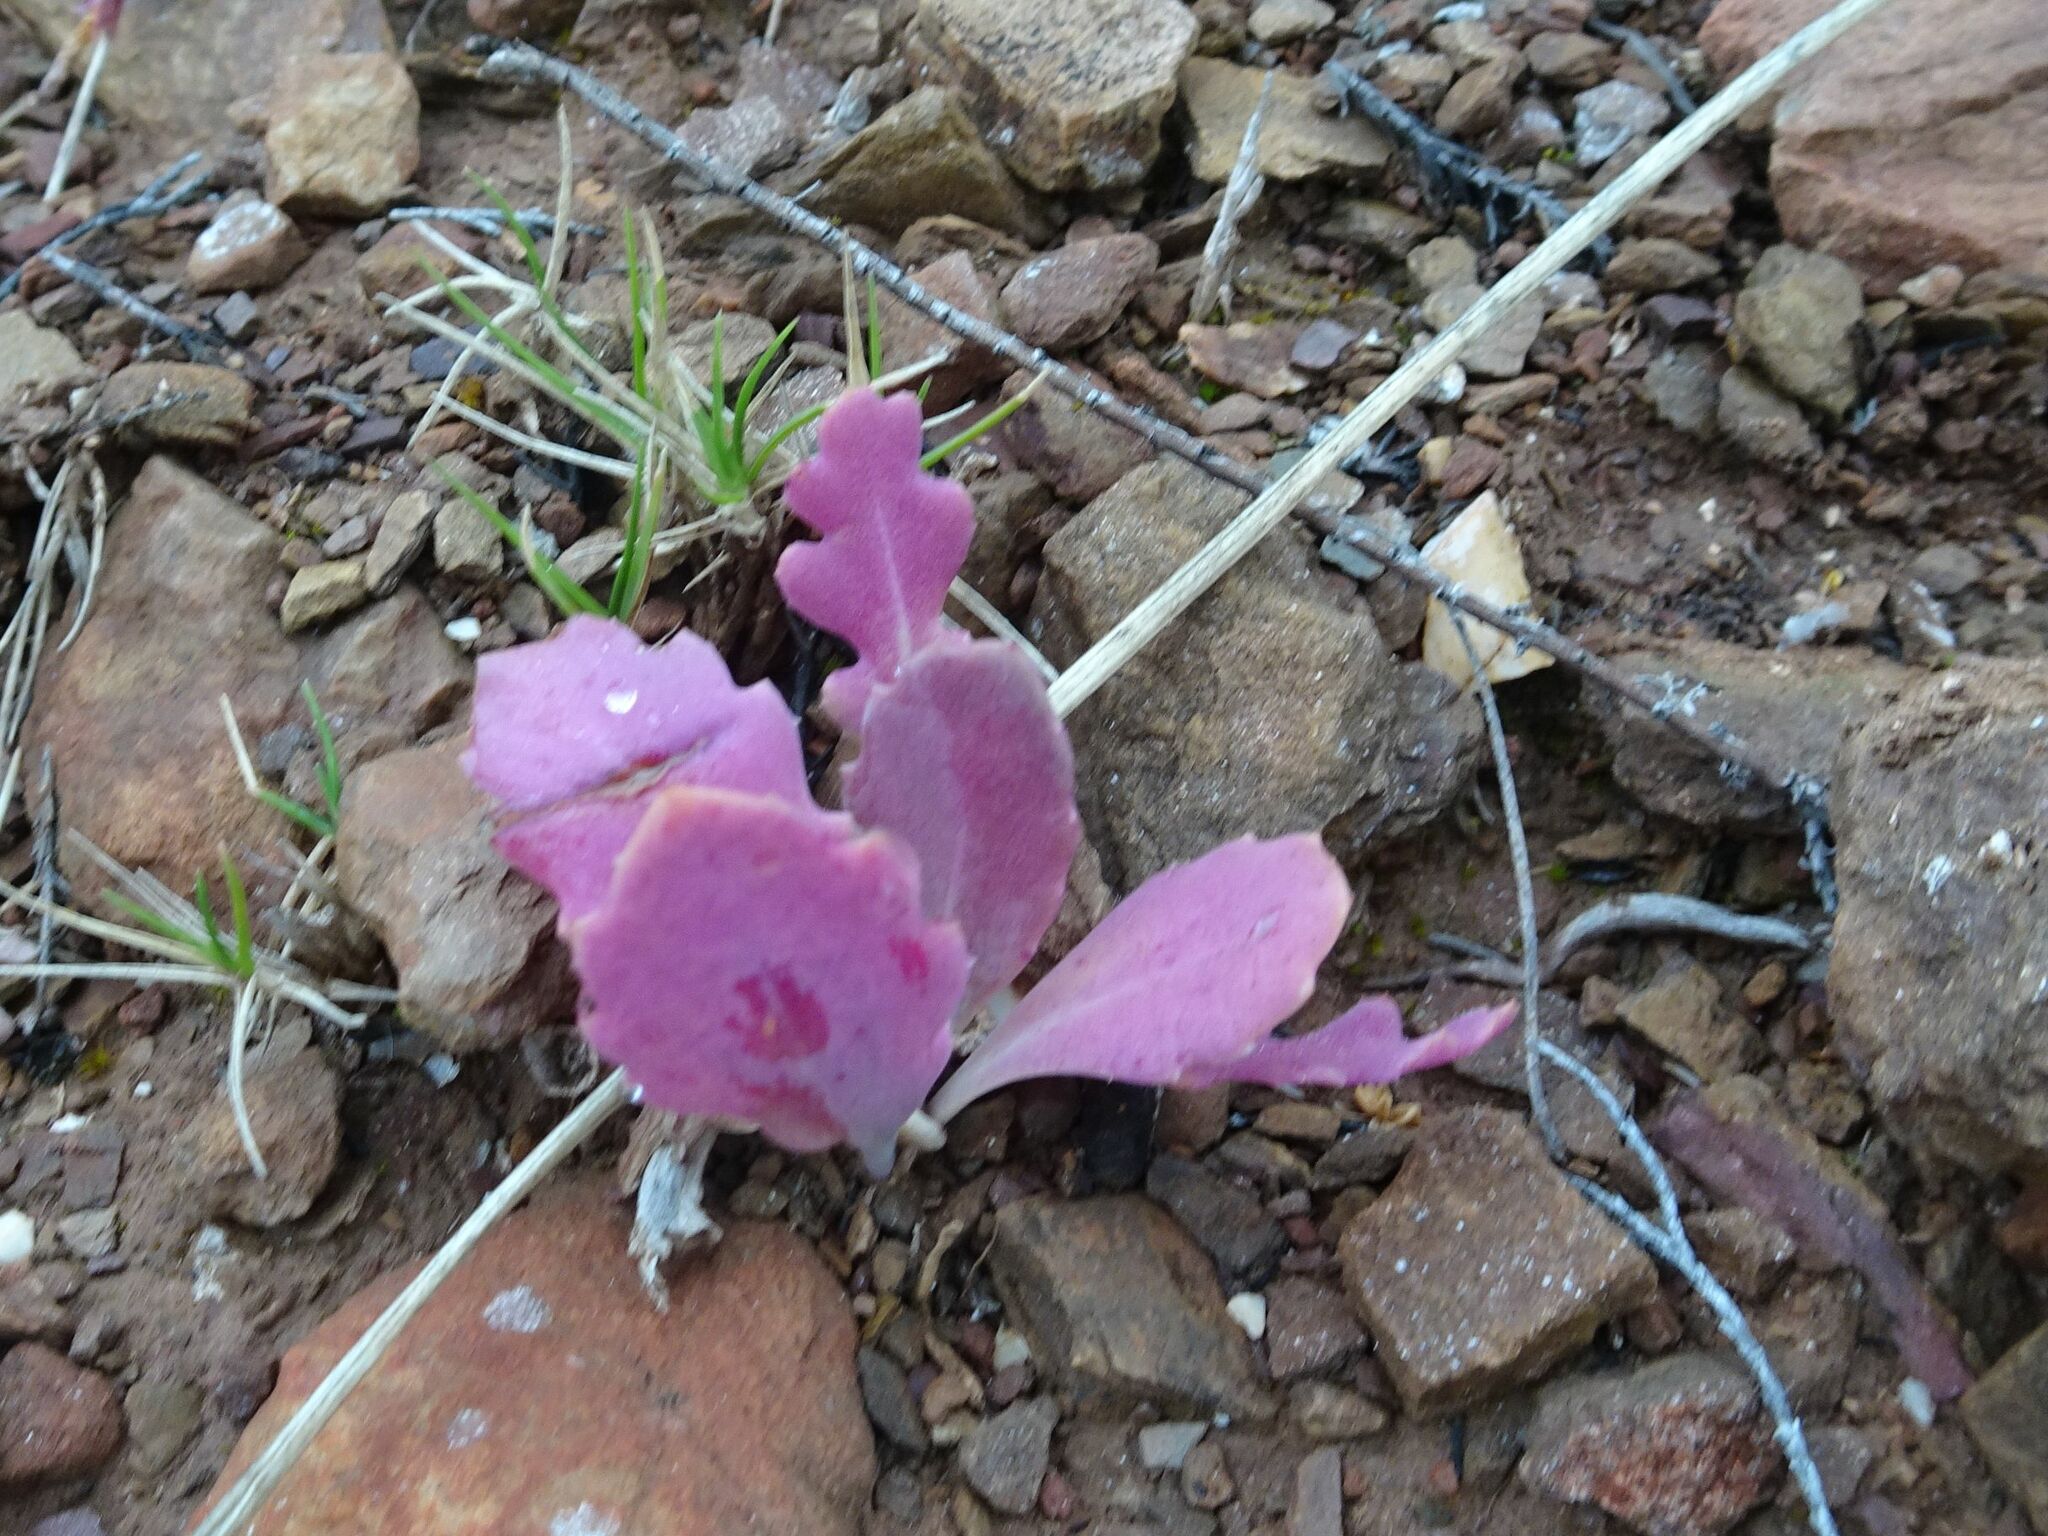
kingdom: Plantae
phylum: Tracheophyta
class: Magnoliopsida
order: Asterales
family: Asteraceae
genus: Othonna
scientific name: Othonna auriculifolia
